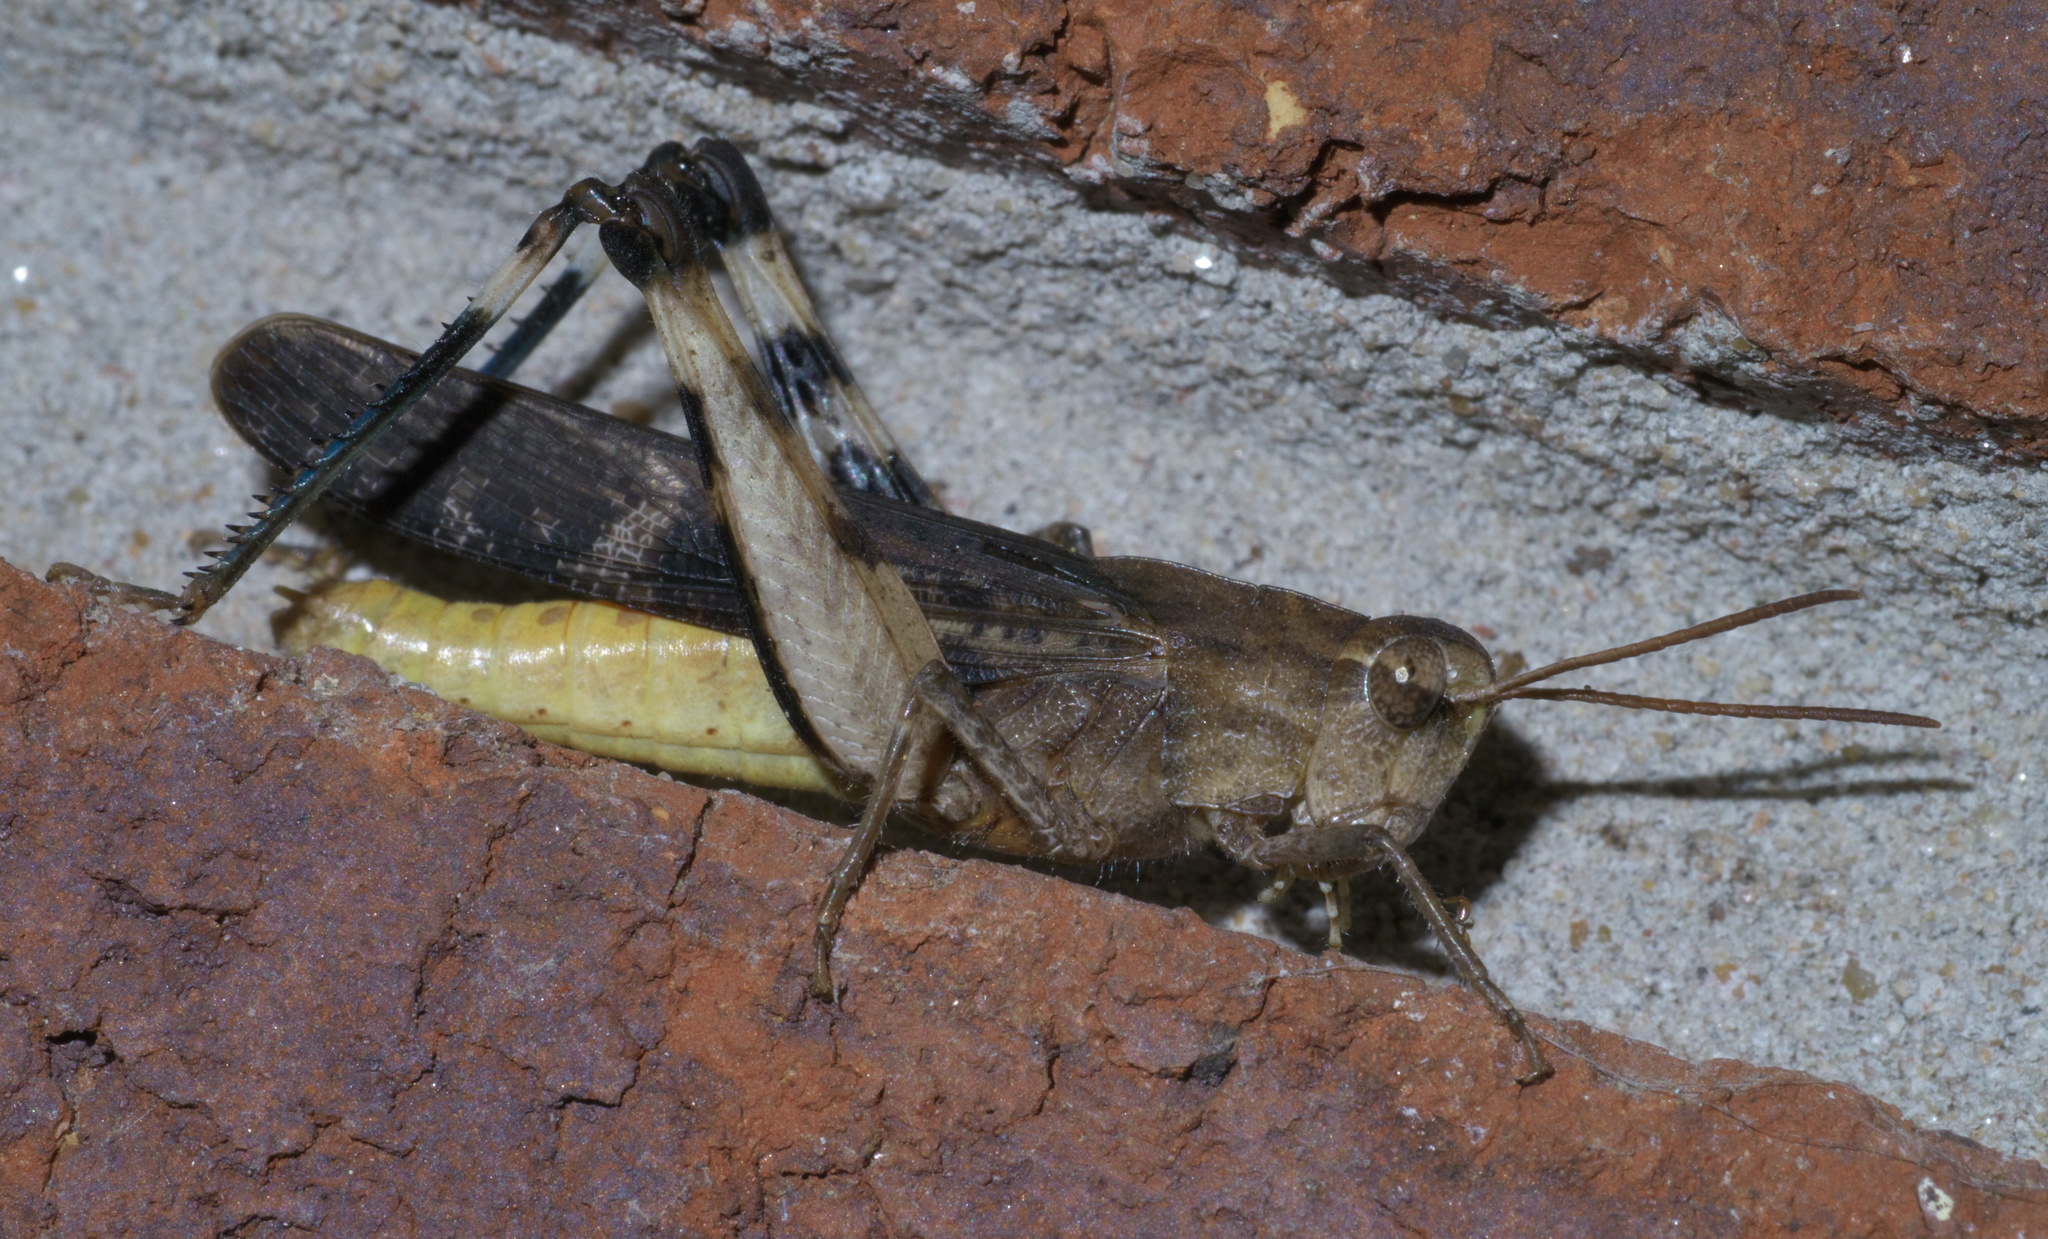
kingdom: Animalia
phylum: Arthropoda
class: Insecta
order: Orthoptera
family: Acrididae
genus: Chortophaga
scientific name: Chortophaga viridifasciata
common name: Green-striped grasshopper
